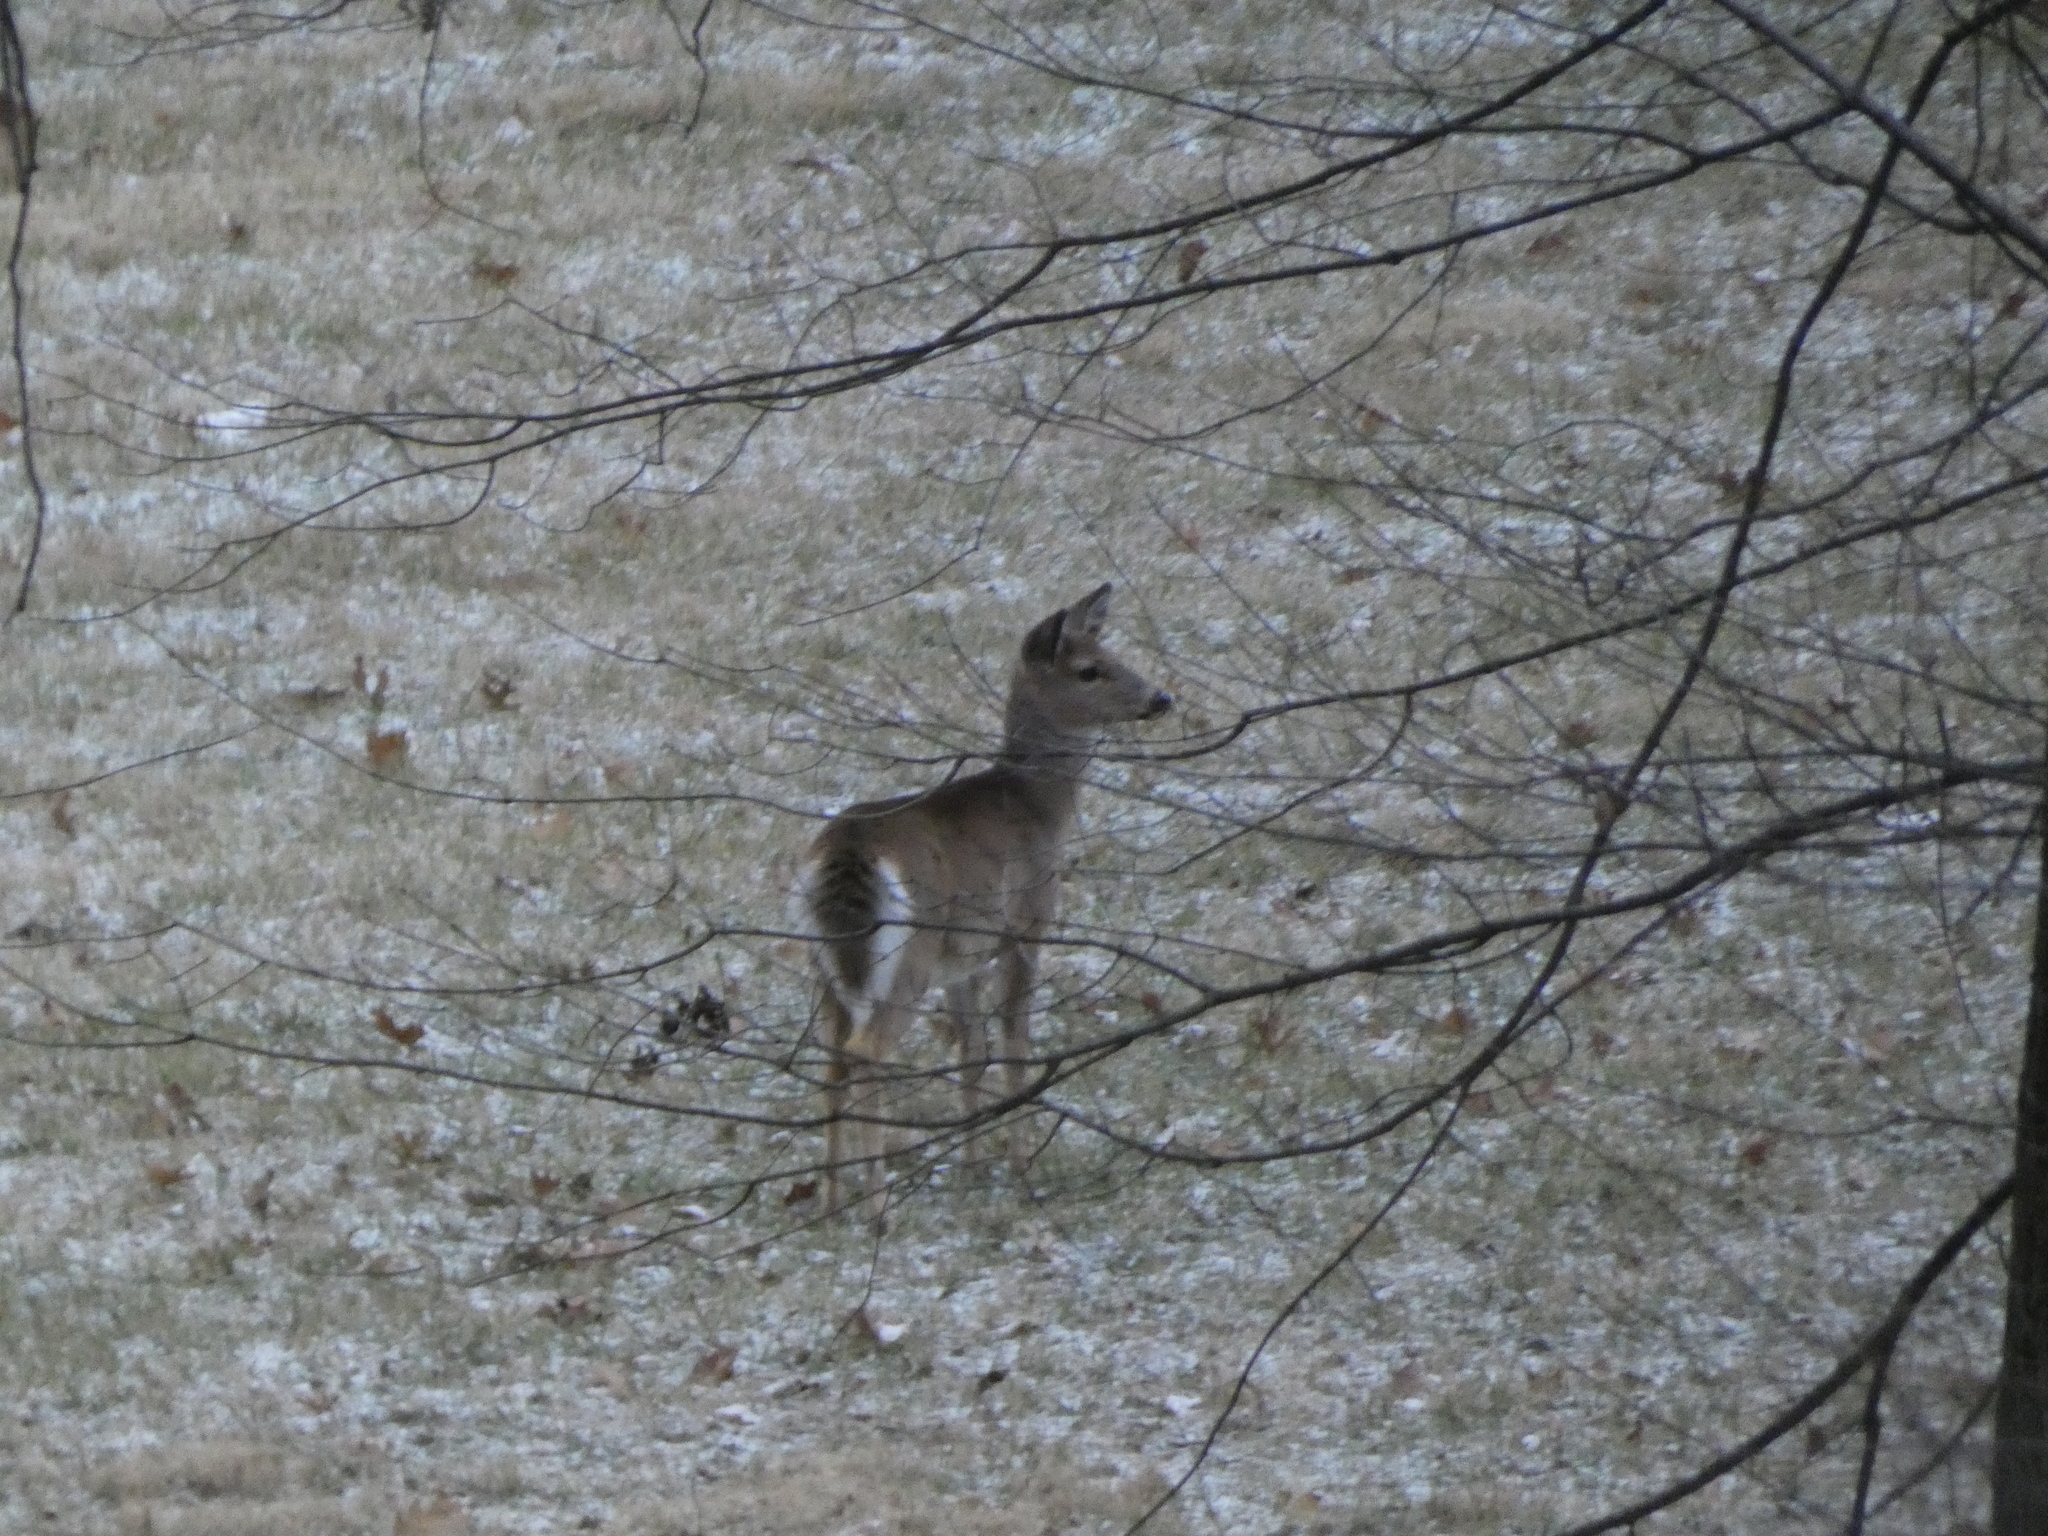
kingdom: Animalia
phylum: Chordata
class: Mammalia
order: Artiodactyla
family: Cervidae
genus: Odocoileus
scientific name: Odocoileus virginianus
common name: White-tailed deer
